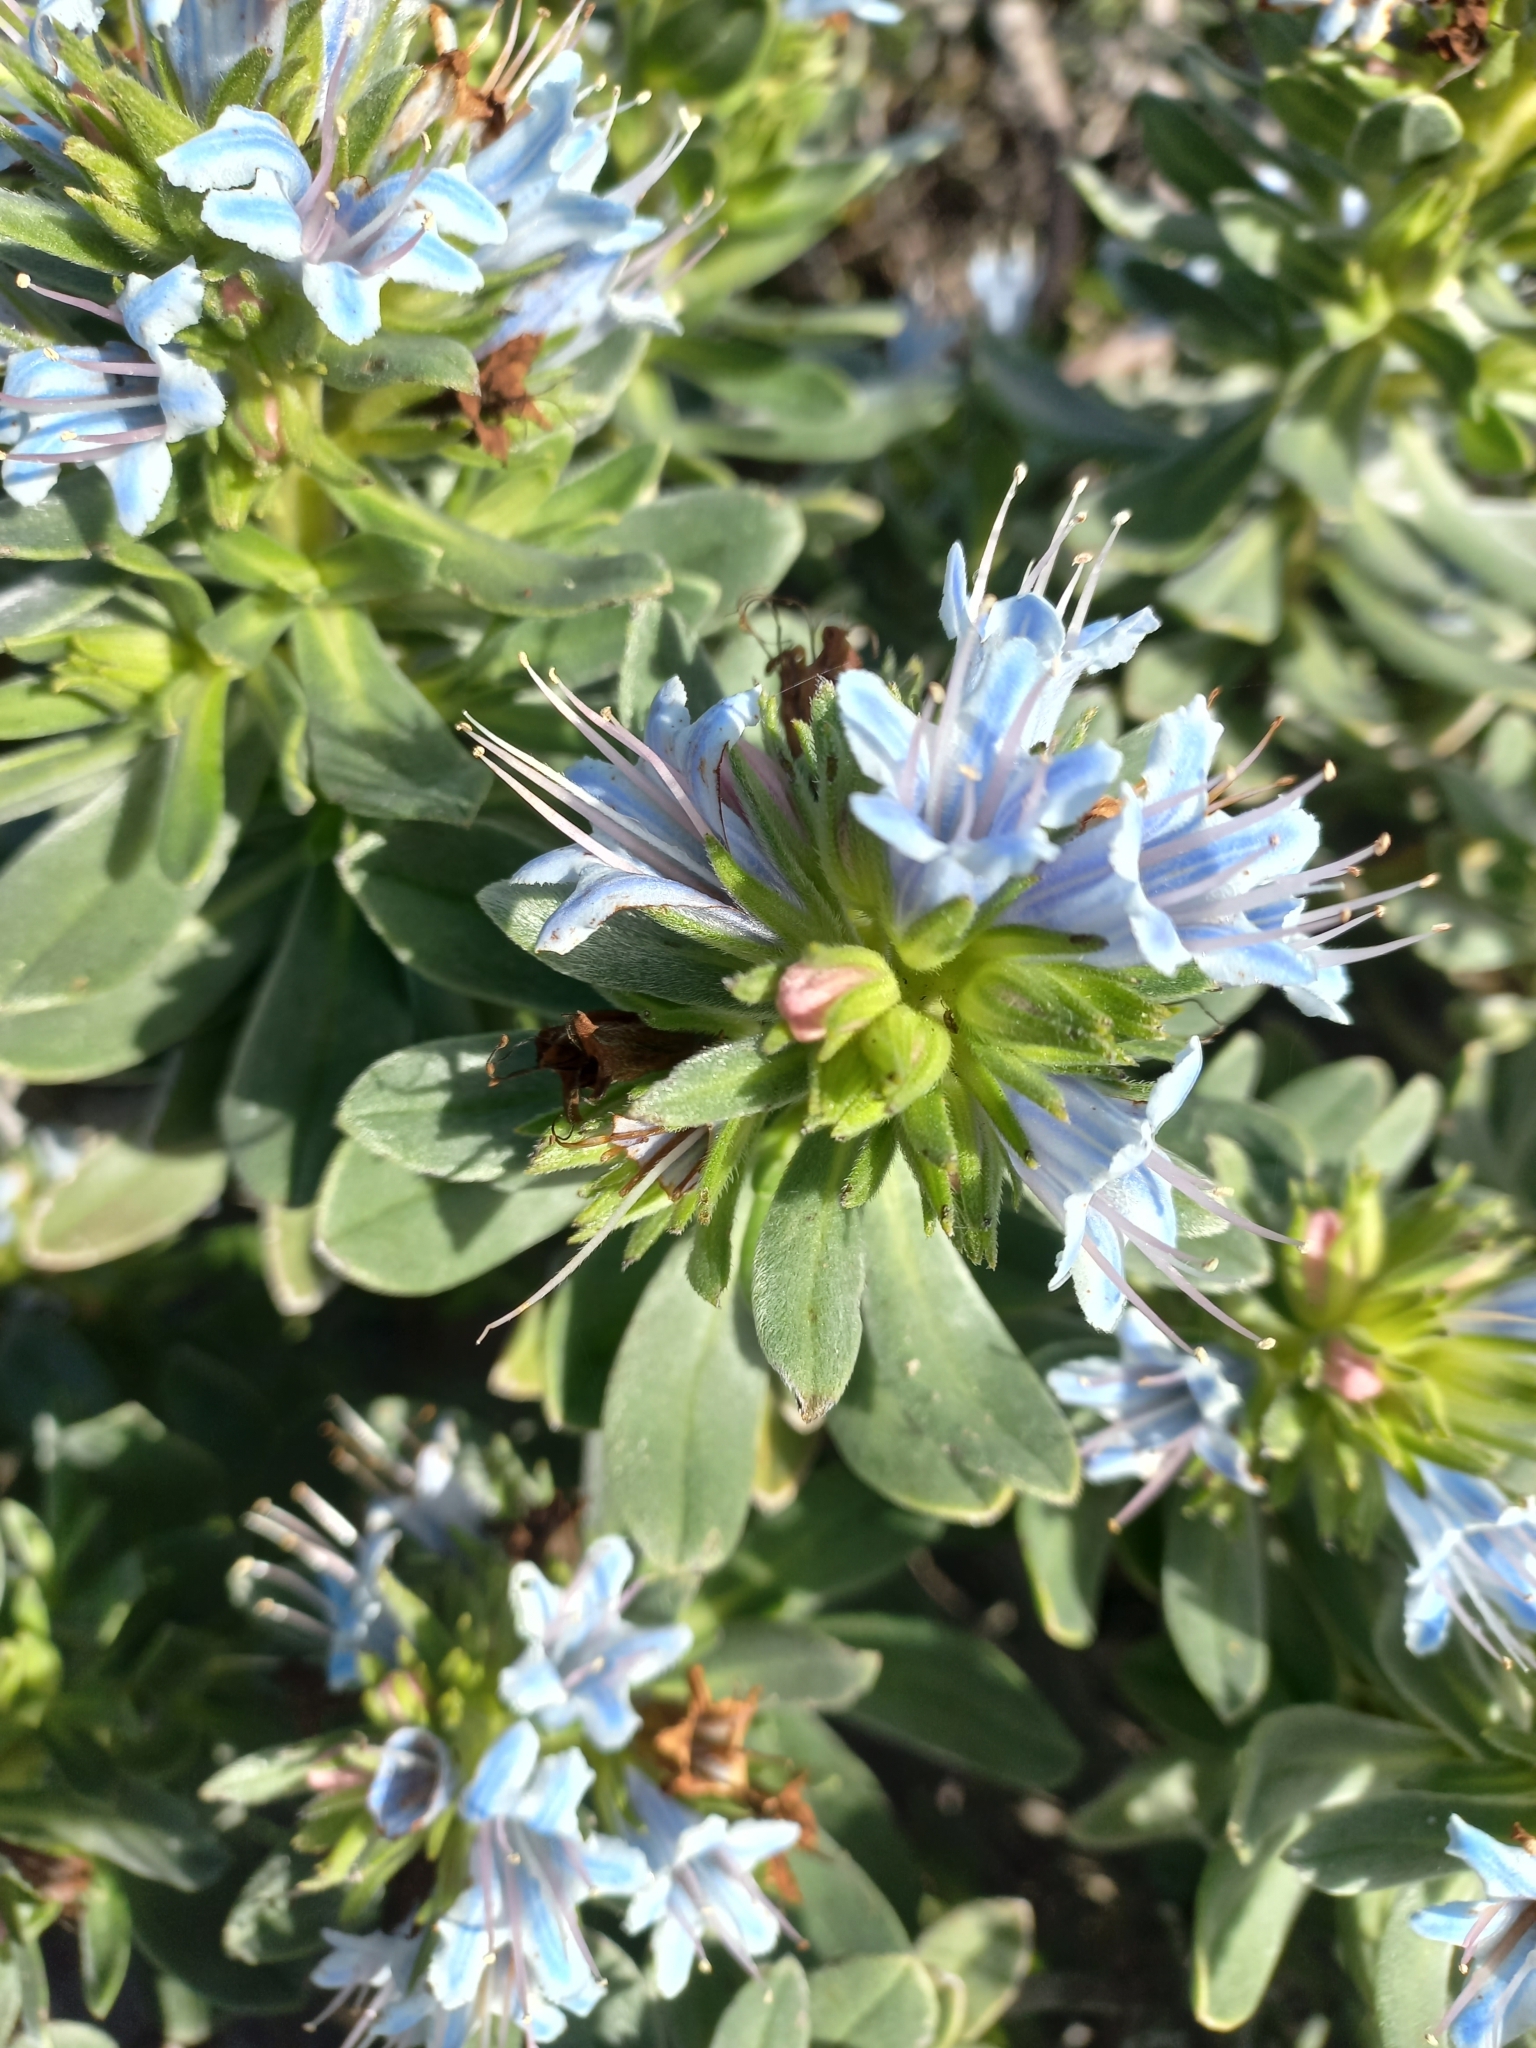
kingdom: Plantae
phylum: Tracheophyta
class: Magnoliopsida
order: Boraginales
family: Boraginaceae
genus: Lobostemon
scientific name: Lobostemon montanus
